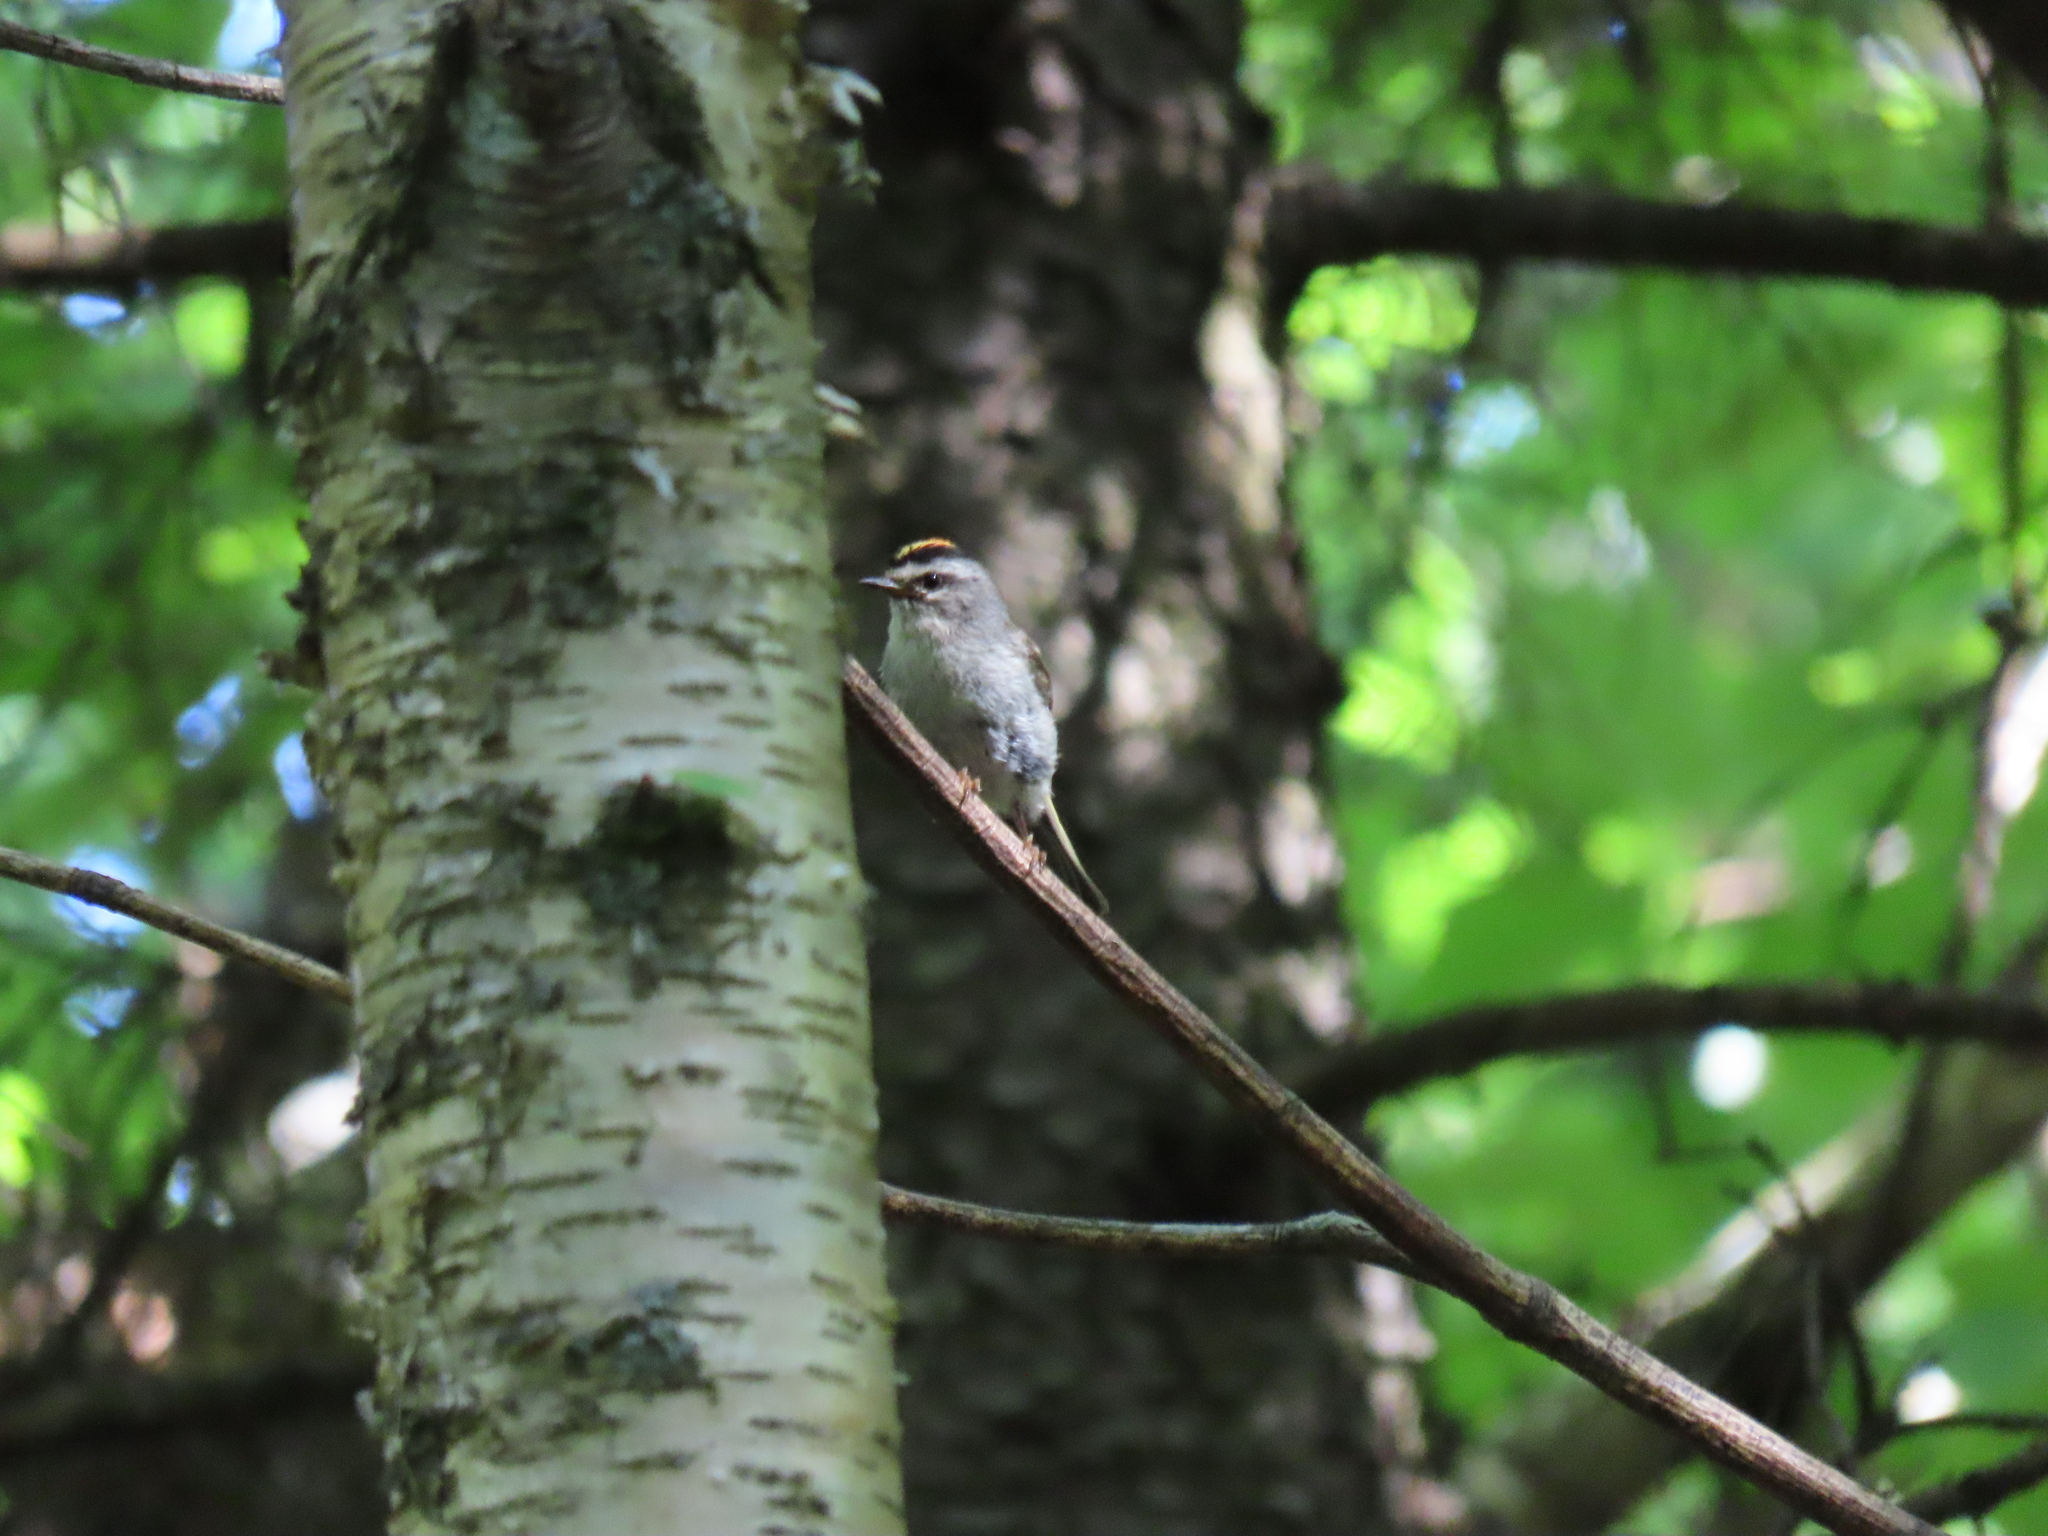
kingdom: Animalia
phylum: Chordata
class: Aves
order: Passeriformes
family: Regulidae
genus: Regulus
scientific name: Regulus satrapa
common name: Golden-crowned kinglet
